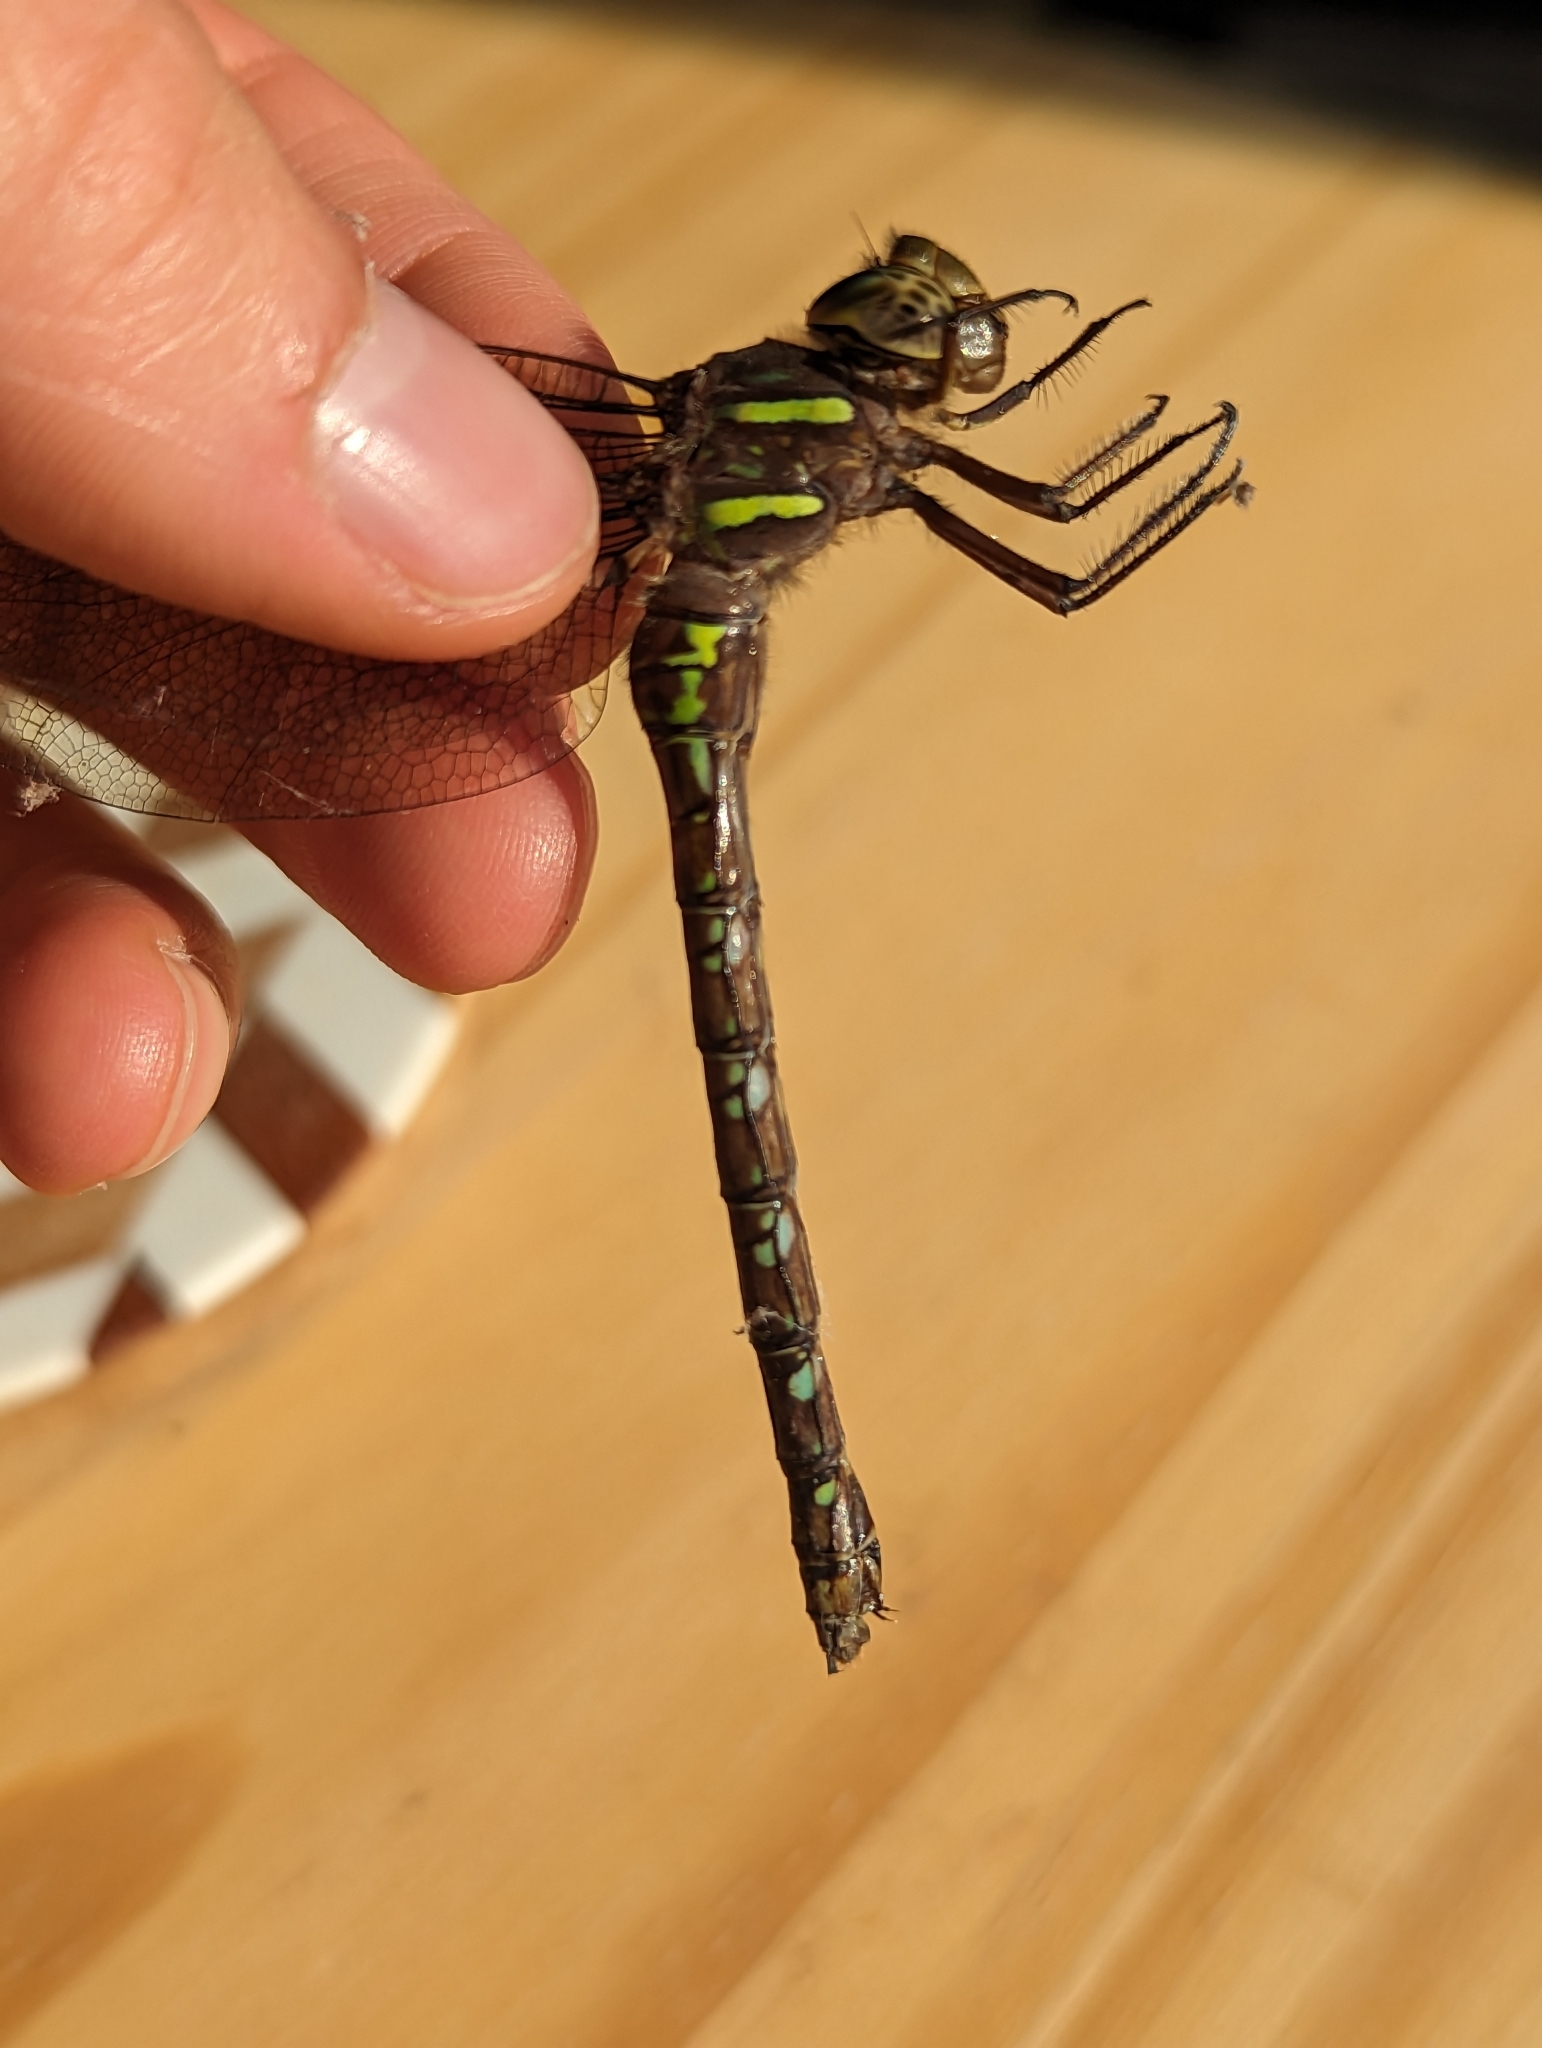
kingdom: Animalia
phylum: Arthropoda
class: Insecta
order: Odonata
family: Aeshnidae
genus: Aeshna
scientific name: Aeshna umbrosa
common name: Shadow darner
